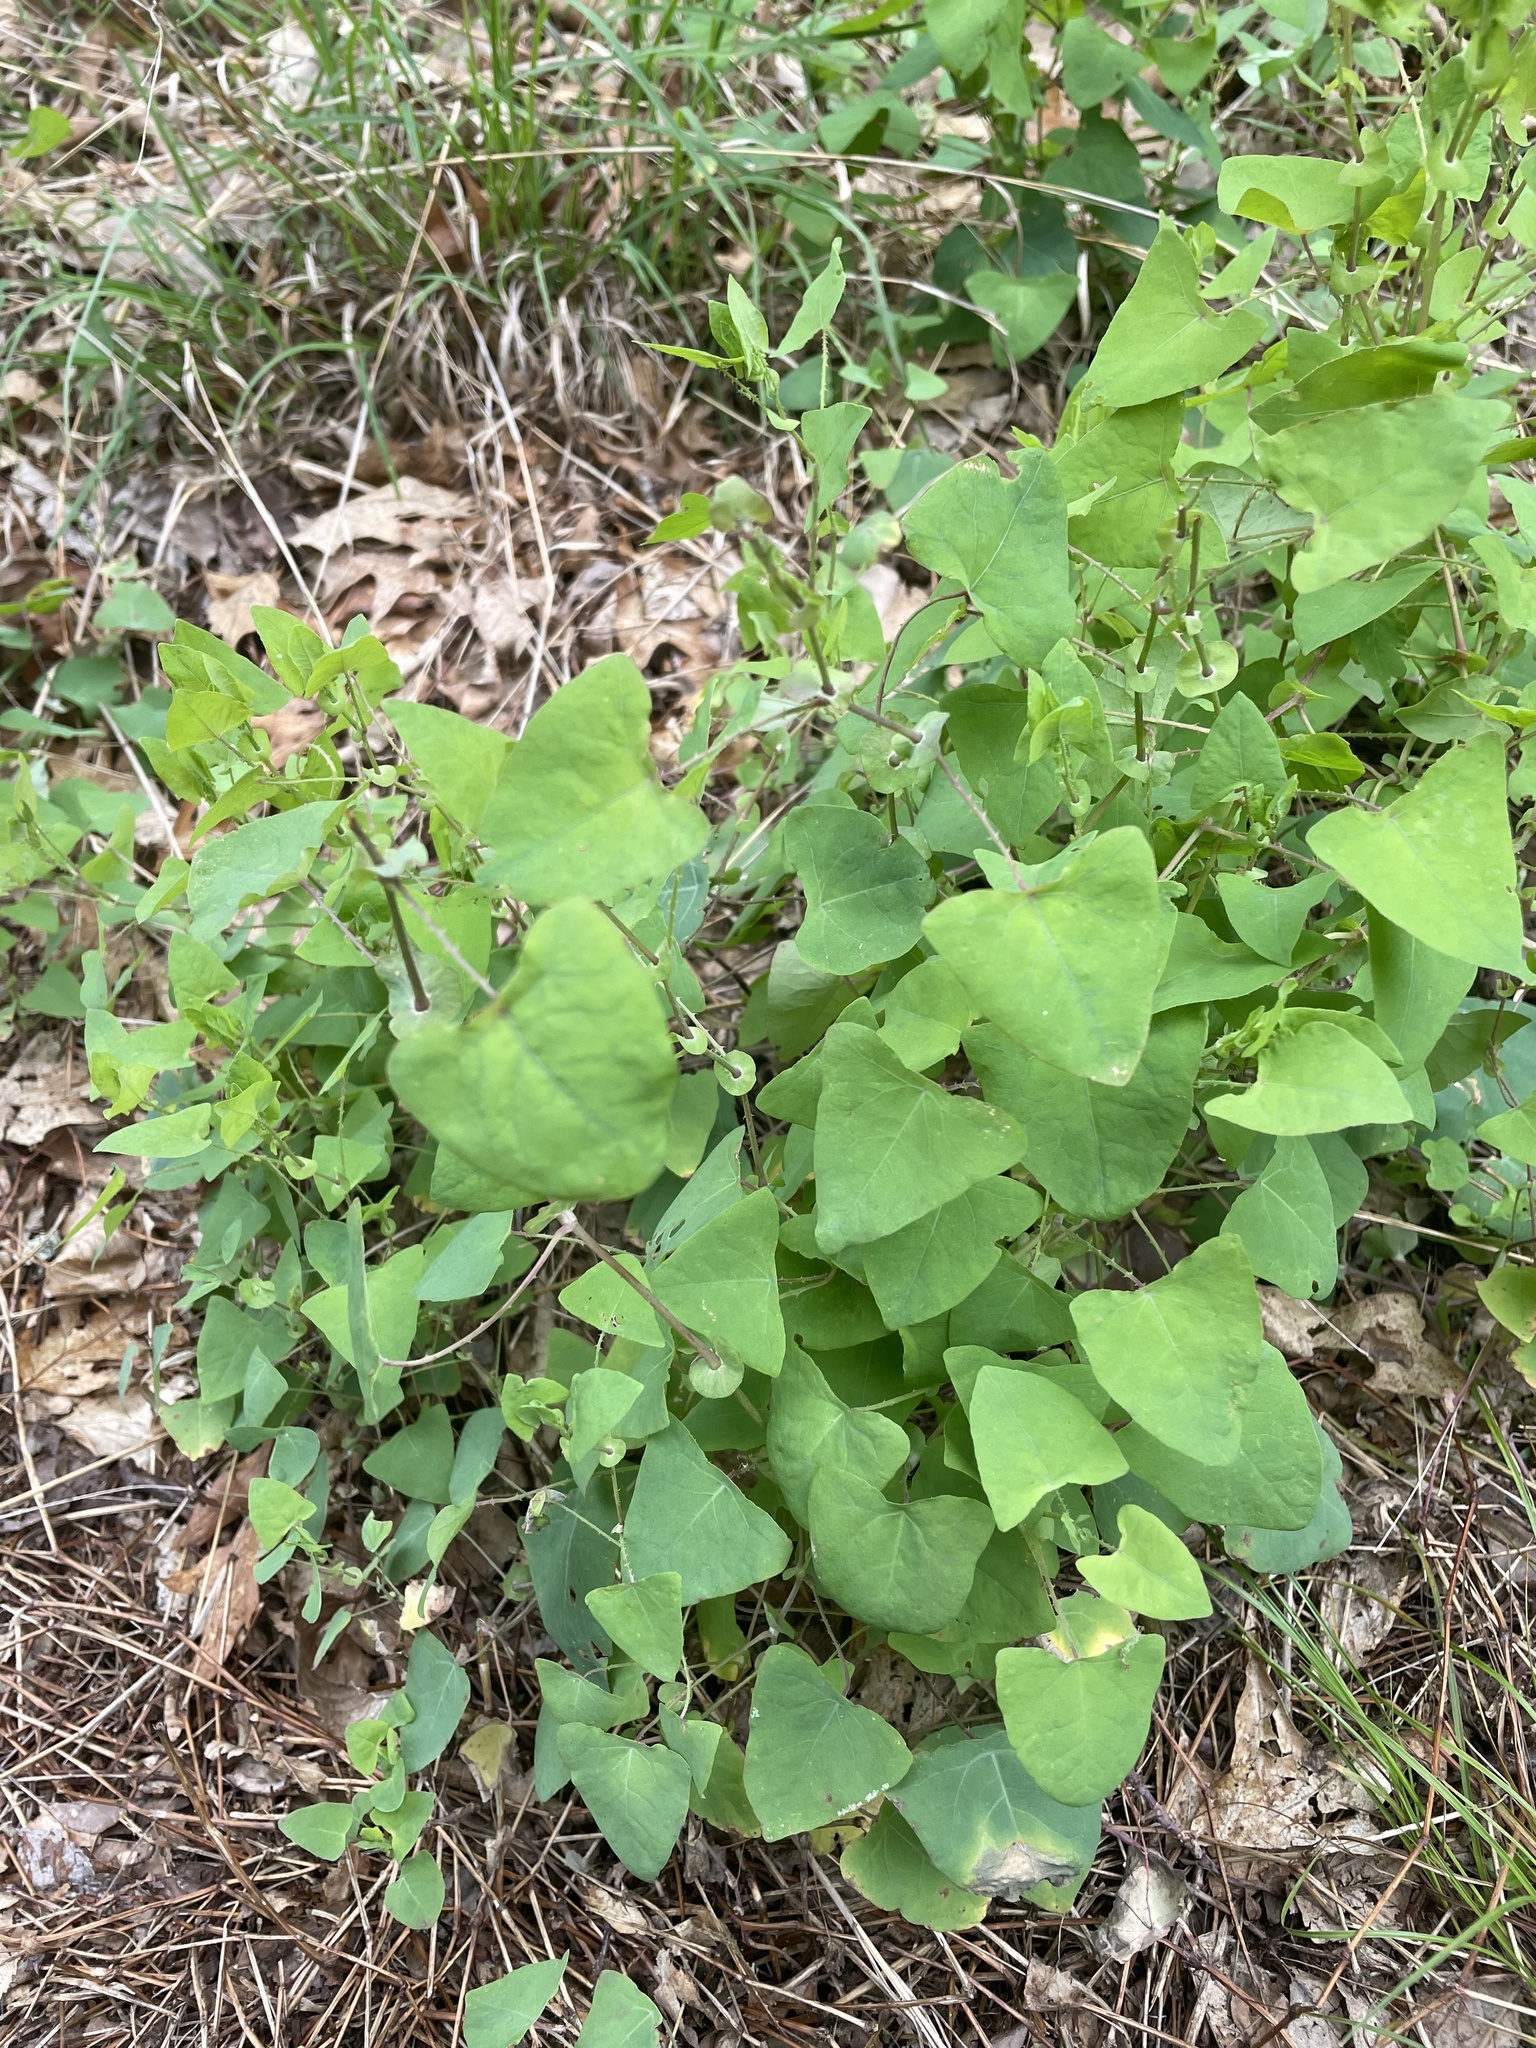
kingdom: Plantae
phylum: Tracheophyta
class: Magnoliopsida
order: Caryophyllales
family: Polygonaceae
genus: Persicaria
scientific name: Persicaria perfoliata
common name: Asiatic tearthumb
